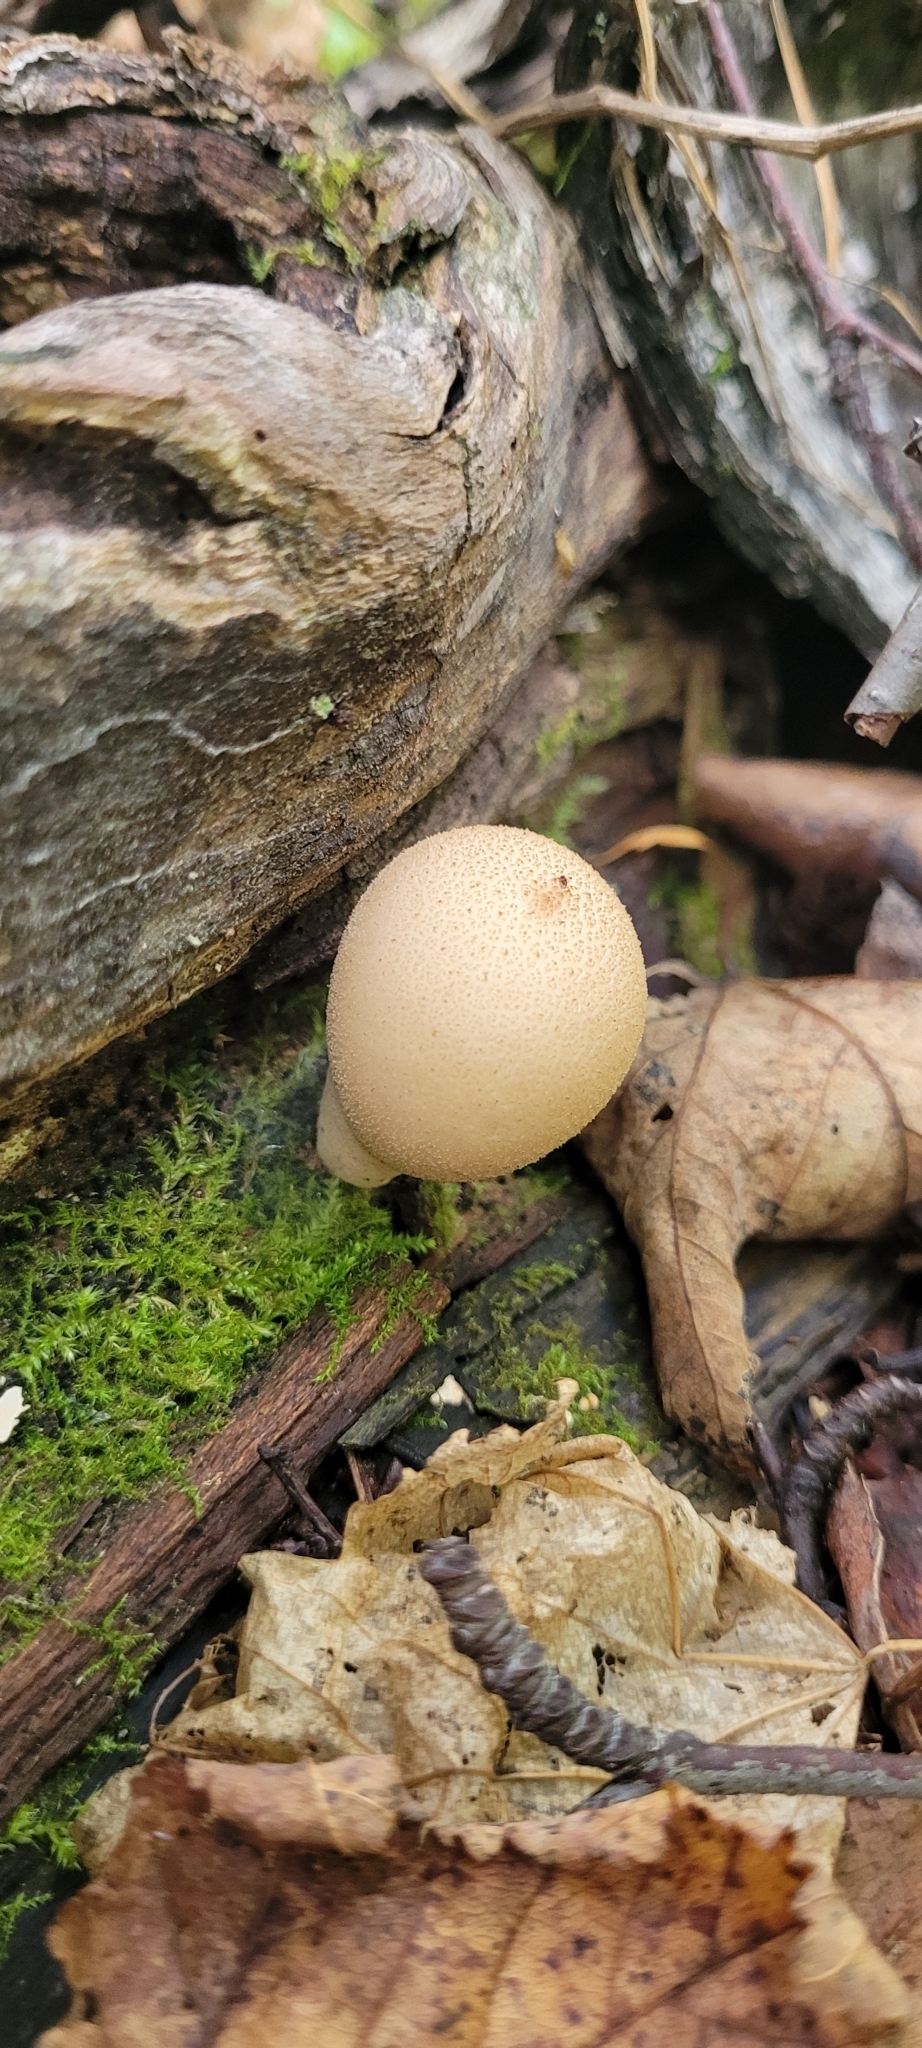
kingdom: Fungi
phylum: Basidiomycota
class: Agaricomycetes
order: Agaricales
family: Lycoperdaceae
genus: Apioperdon
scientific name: Apioperdon pyriforme
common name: Pear-shaped puffball
